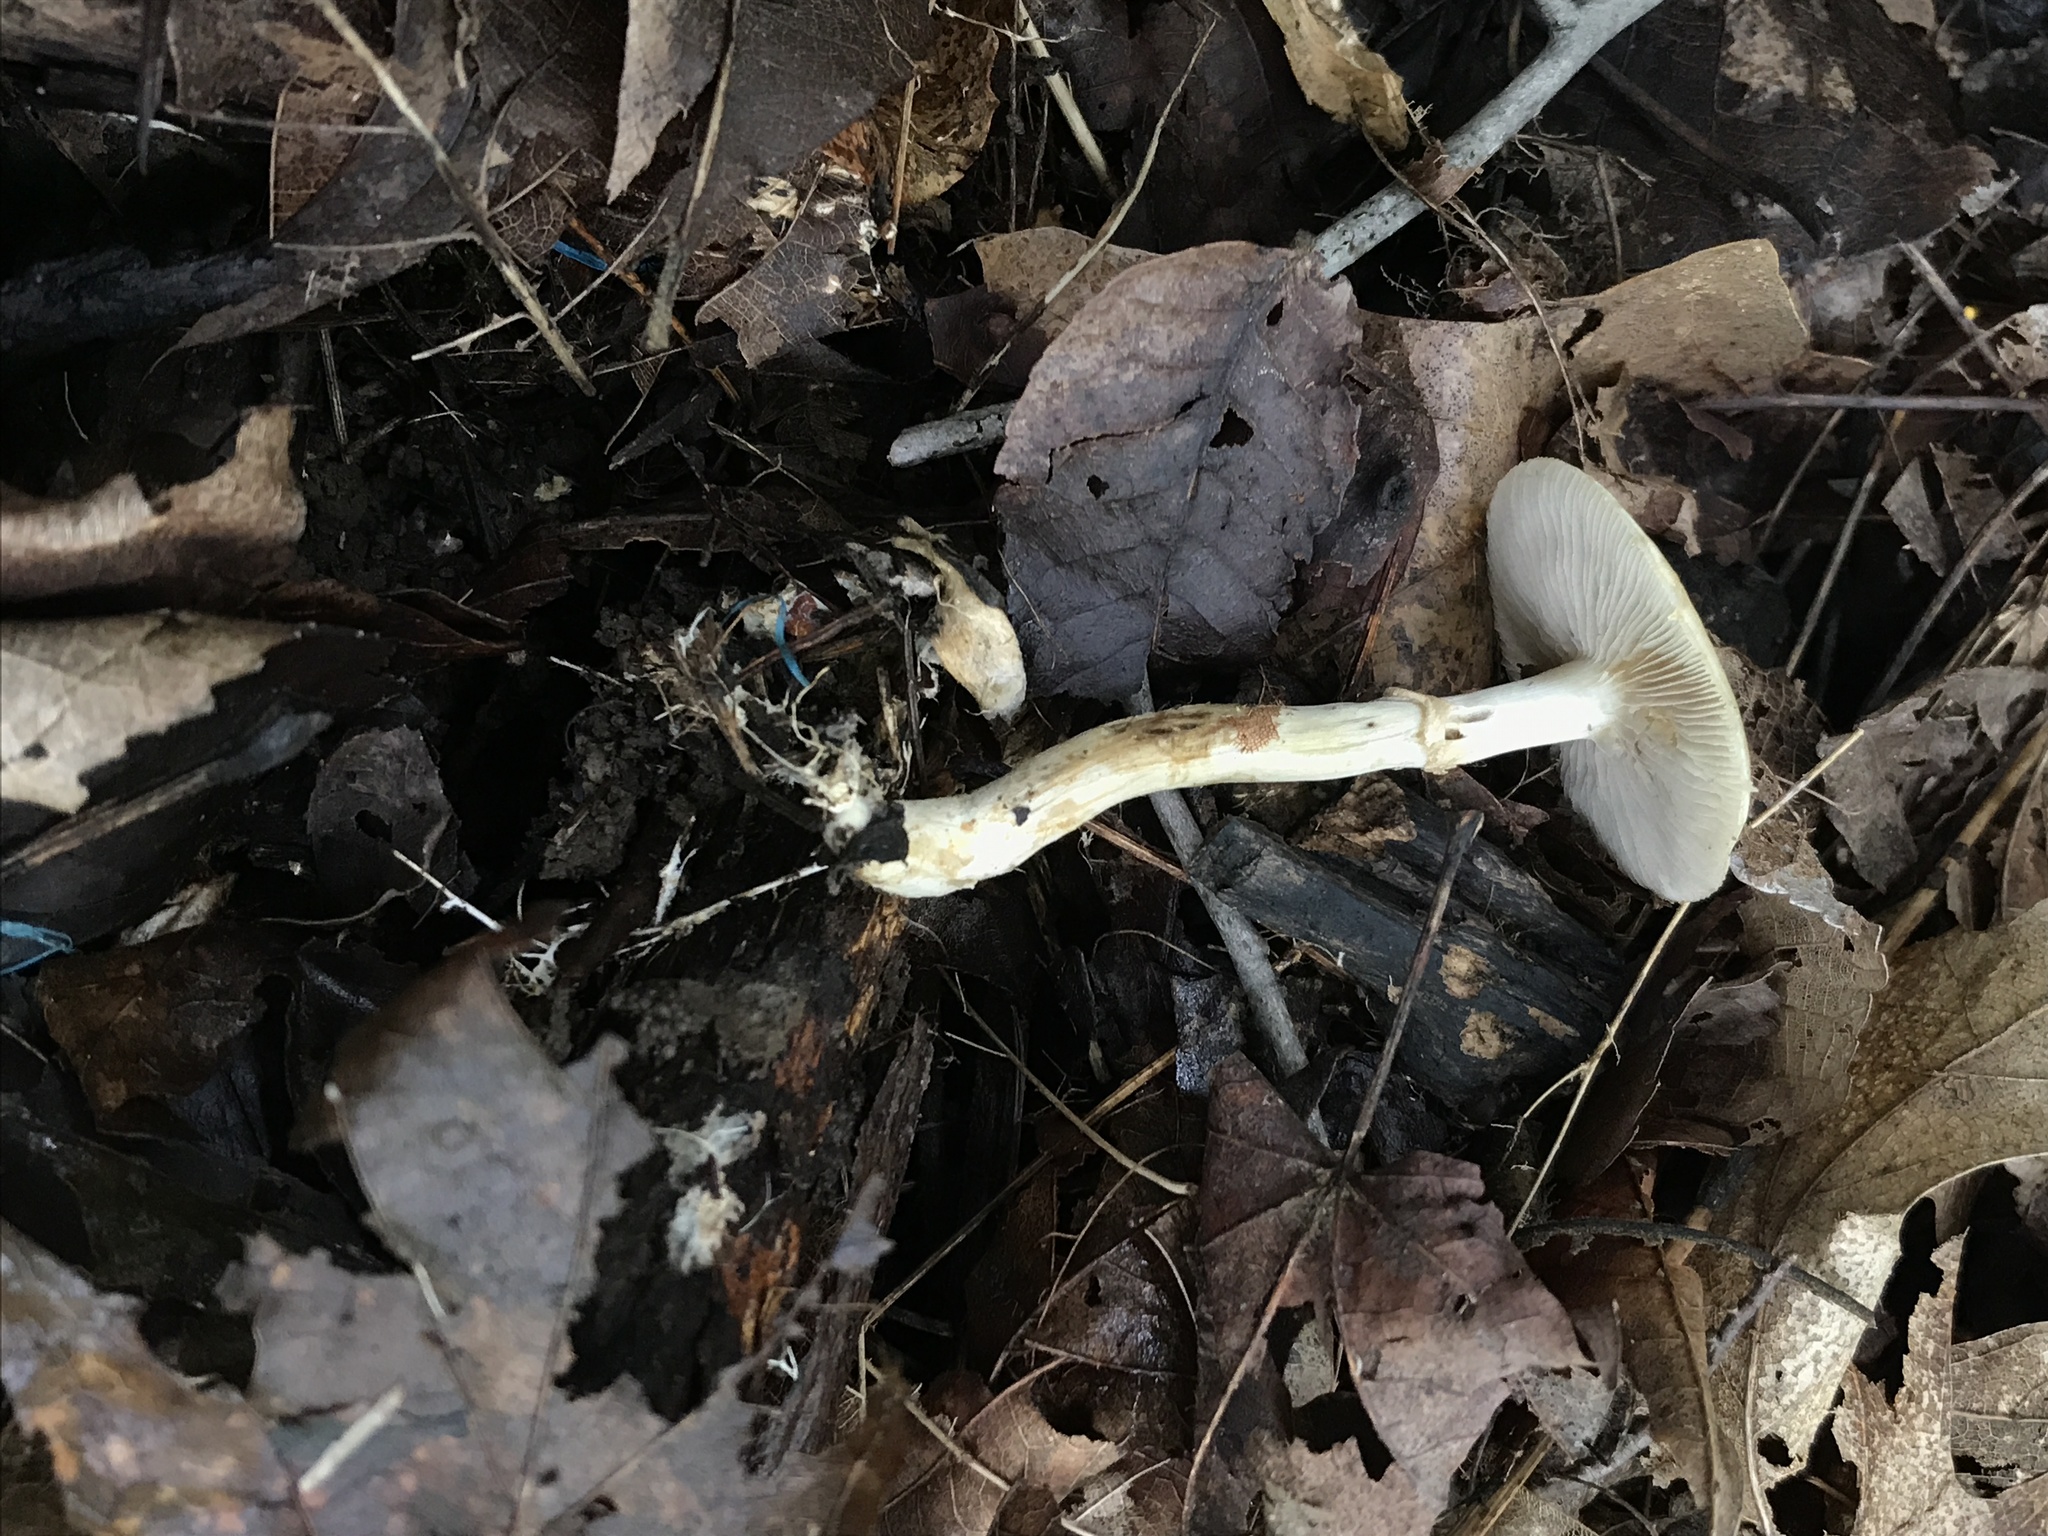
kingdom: Fungi
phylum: Basidiomycota
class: Agaricomycetes
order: Agaricales
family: Strophariaceae
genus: Agrocybe
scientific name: Agrocybe acericola
